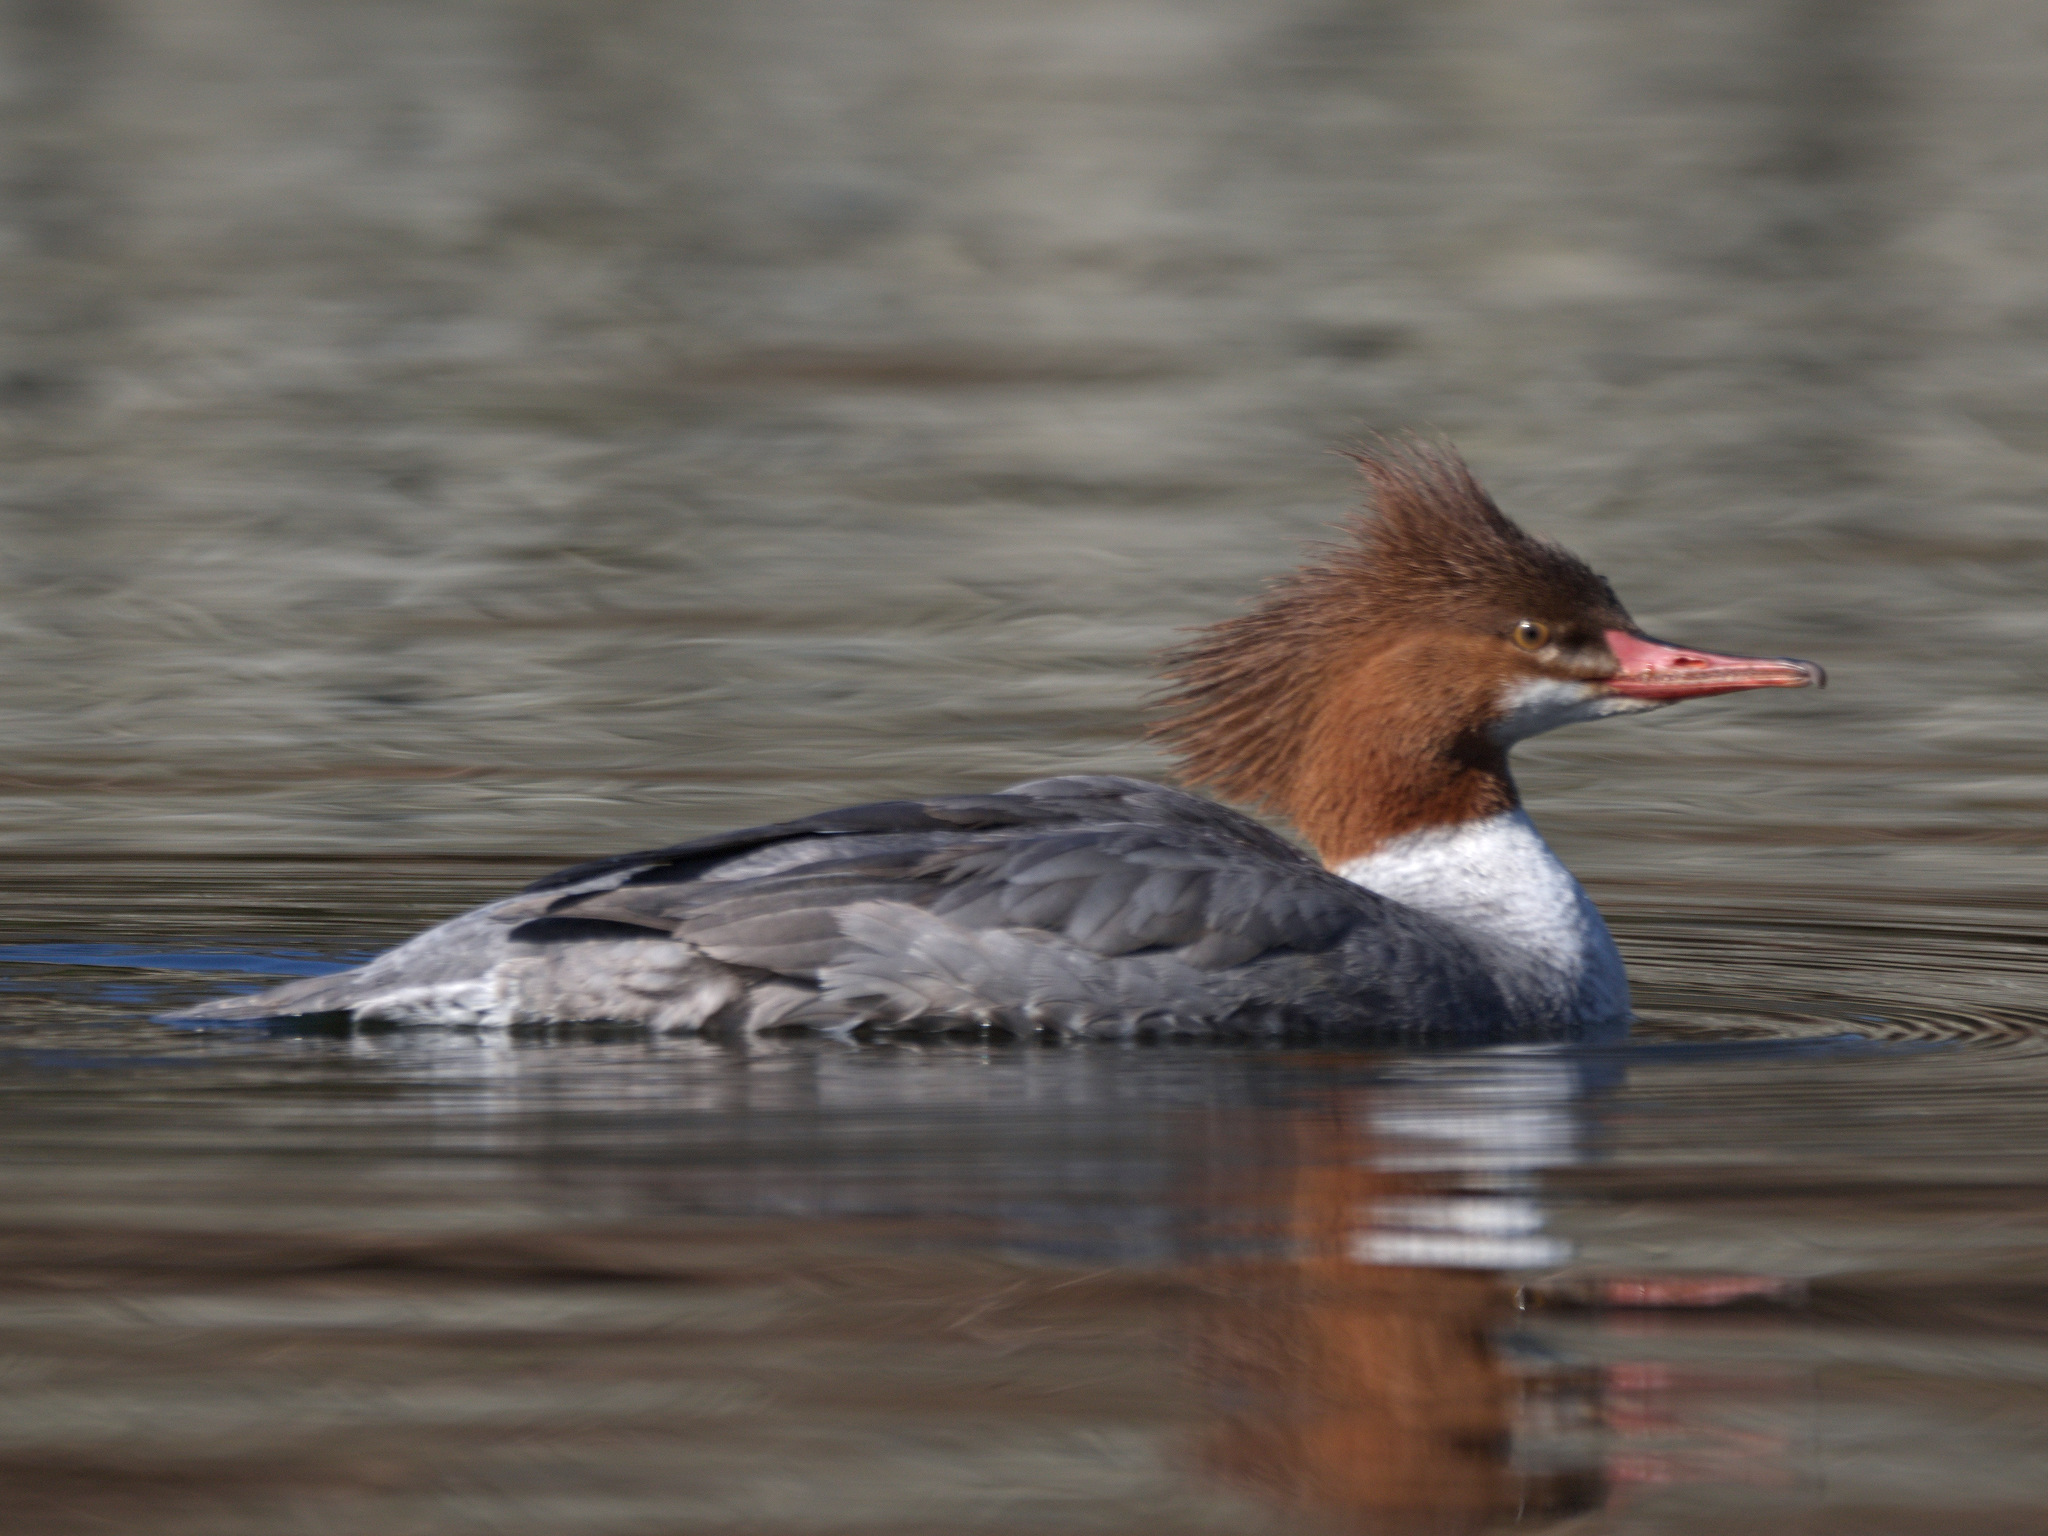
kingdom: Animalia
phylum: Chordata
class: Aves
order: Anseriformes
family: Anatidae
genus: Mergus
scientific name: Mergus merganser
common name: Common merganser
